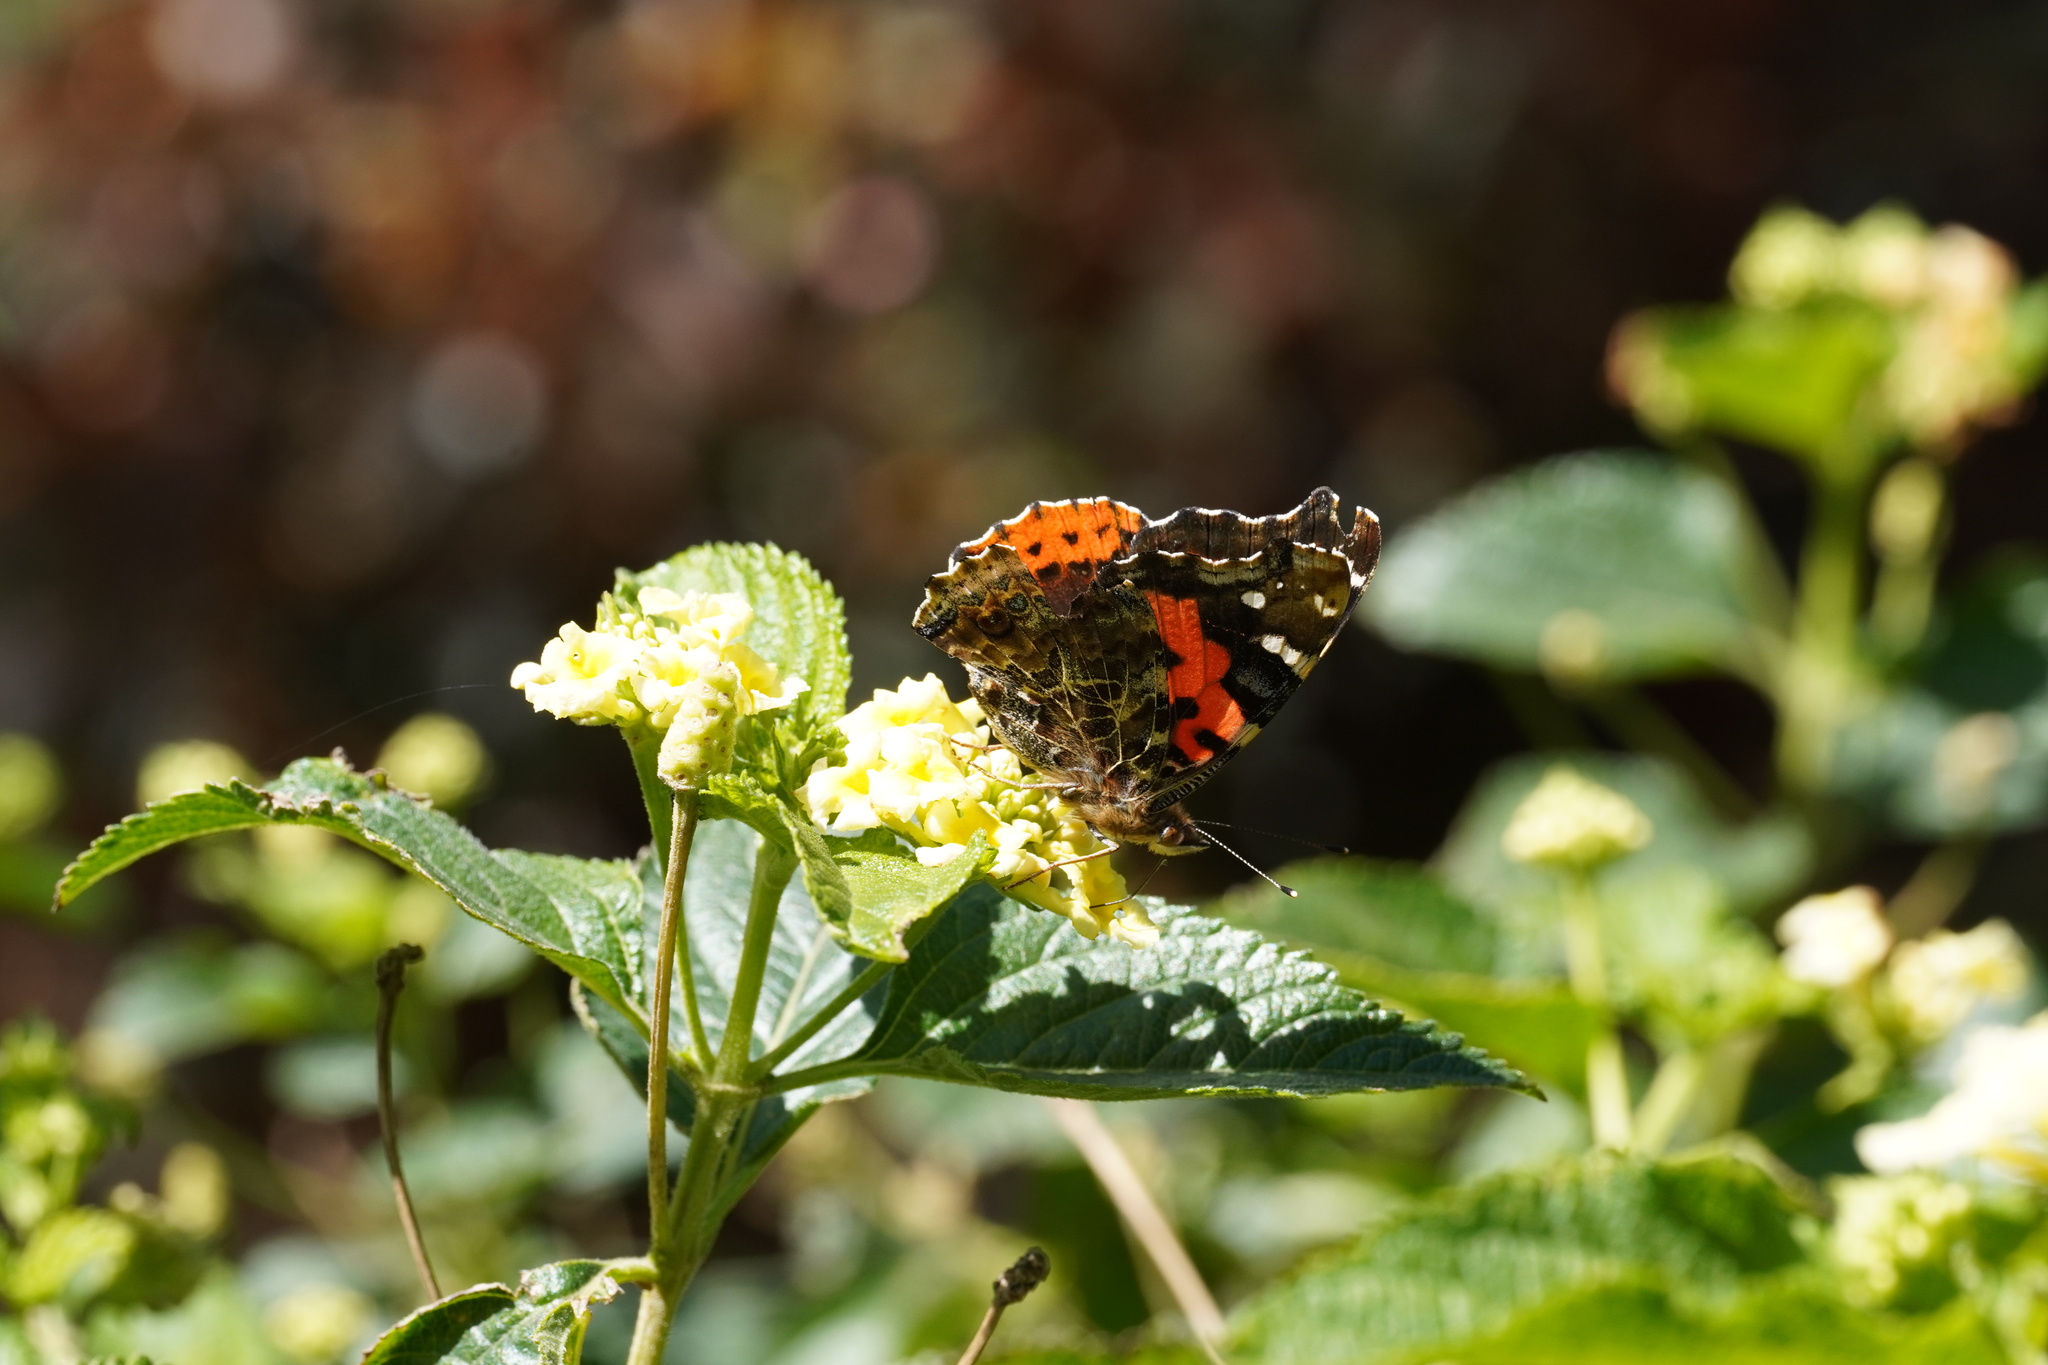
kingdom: Animalia
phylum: Arthropoda
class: Insecta
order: Lepidoptera
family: Nymphalidae
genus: Vanessa
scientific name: Vanessa vulcania
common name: Canary red admiral
